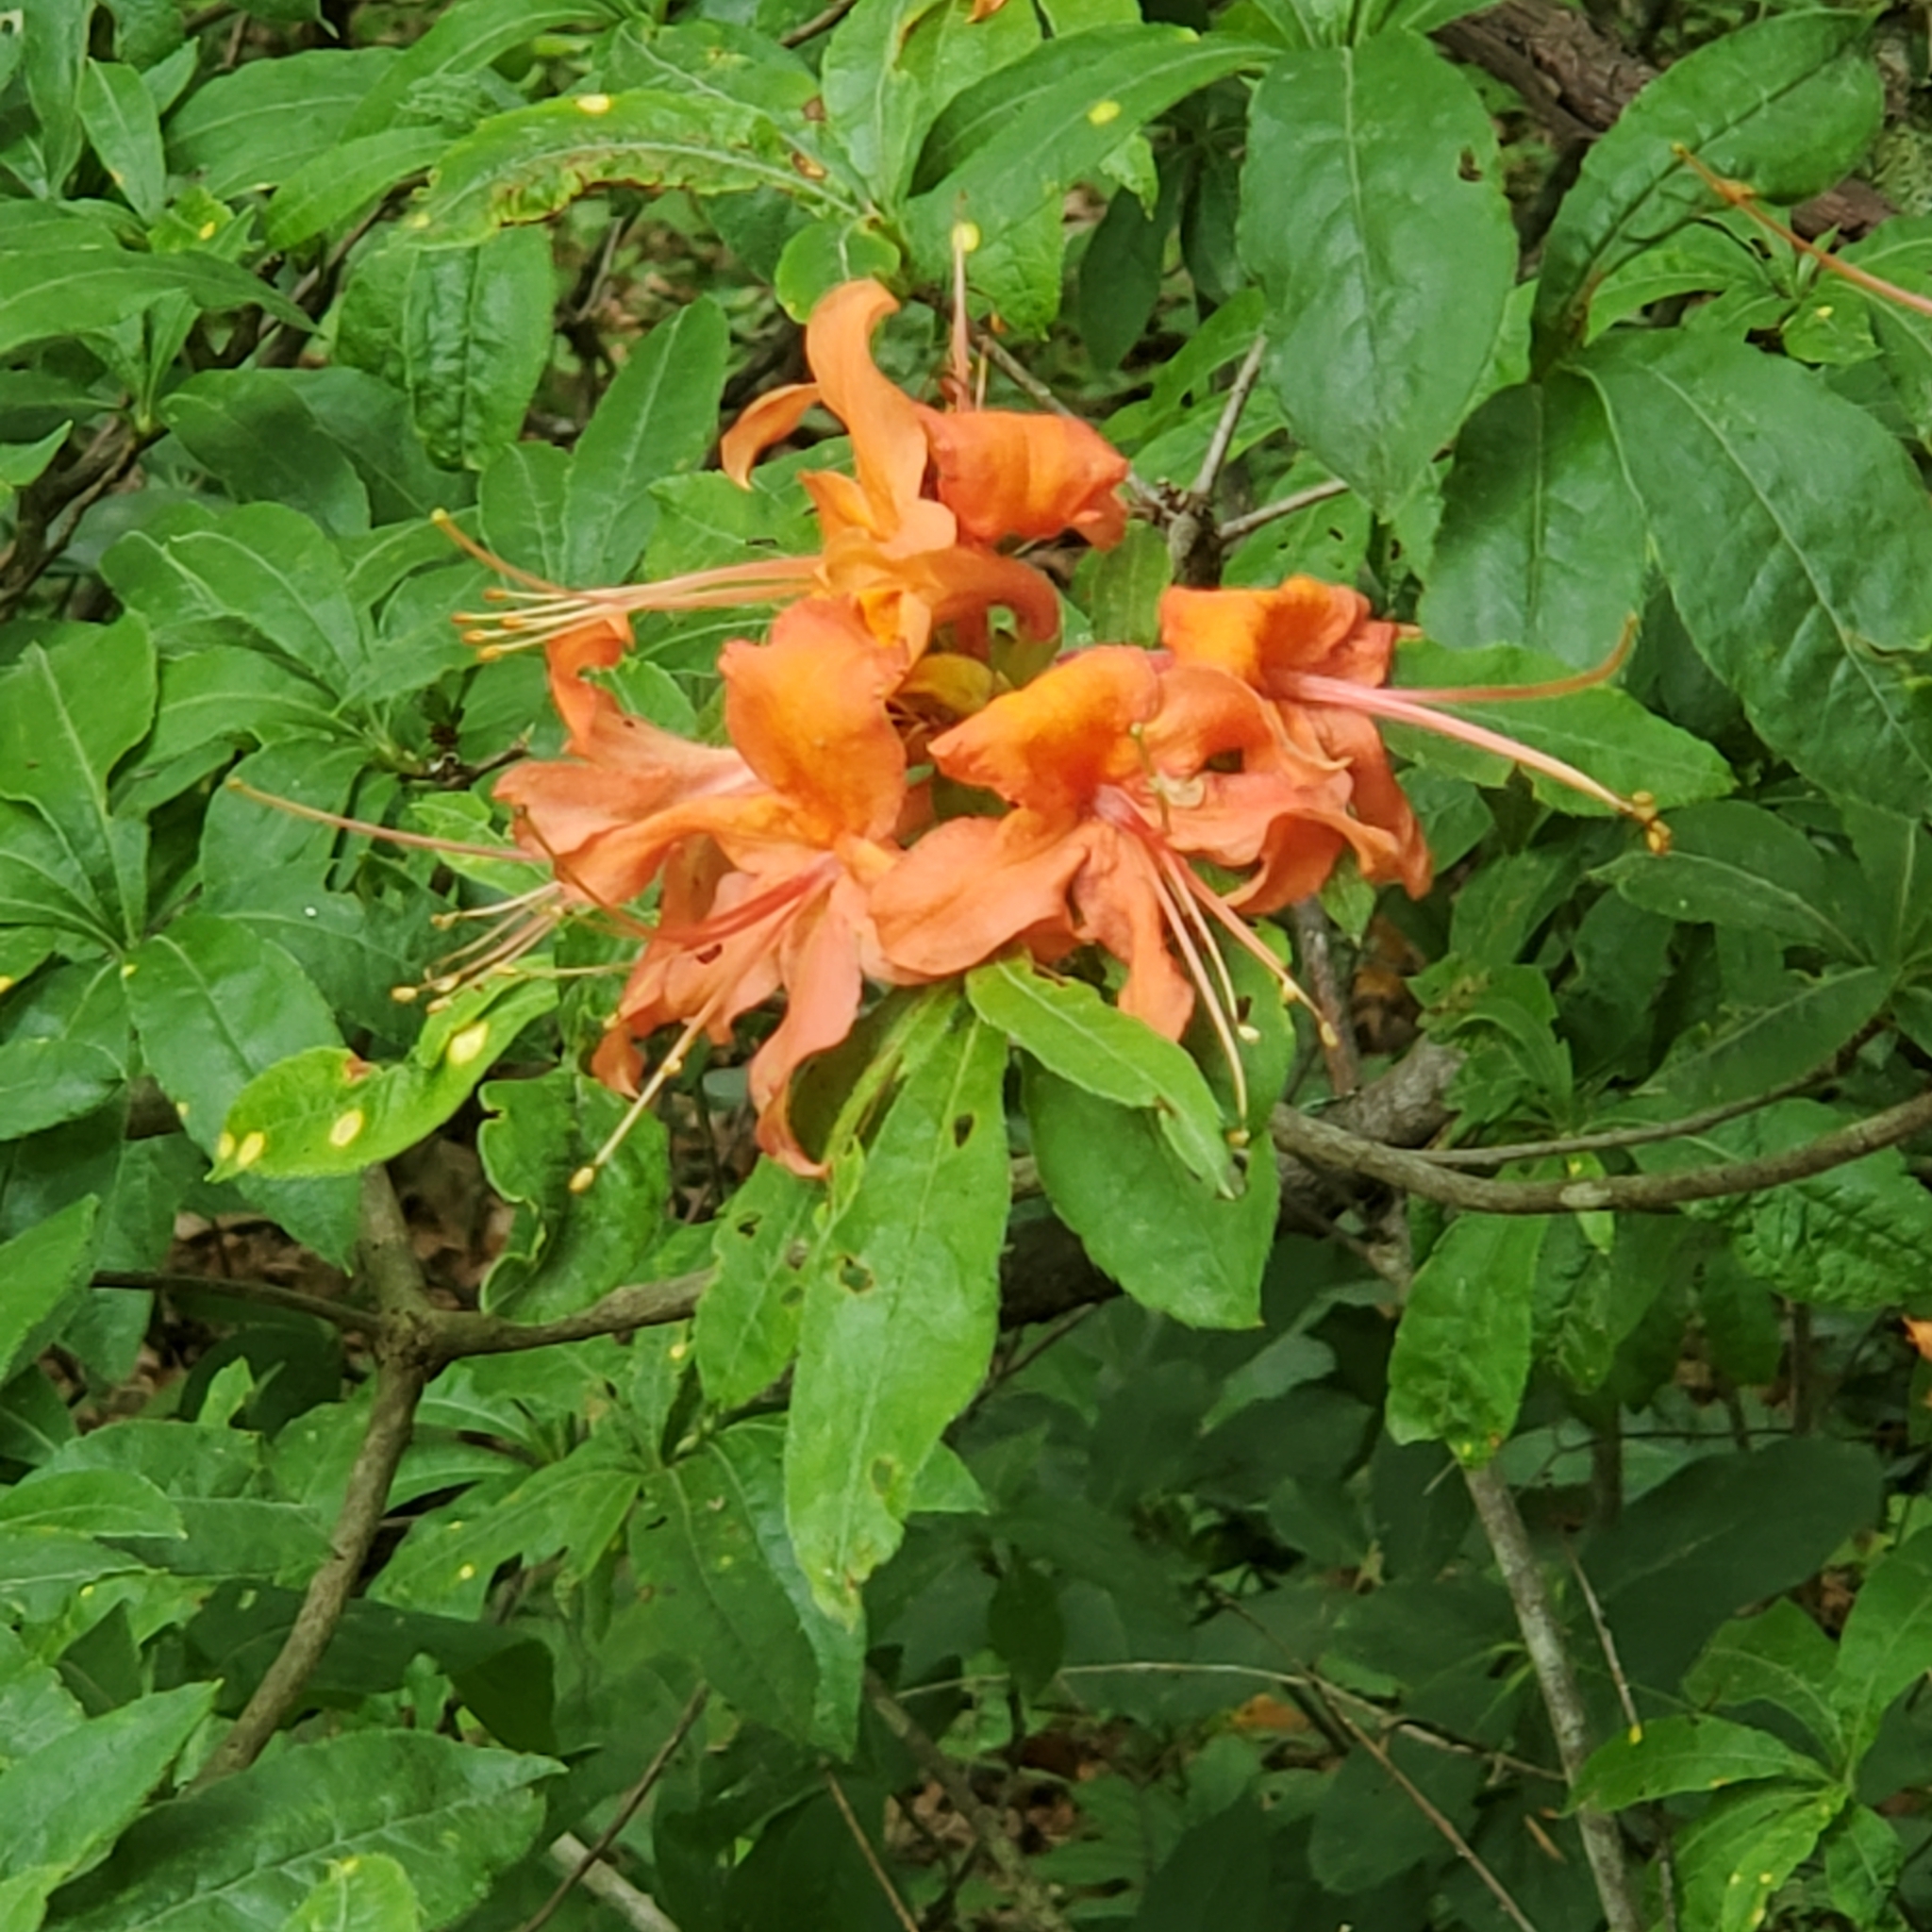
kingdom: Plantae
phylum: Tracheophyta
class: Magnoliopsida
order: Ericales
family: Ericaceae
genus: Rhododendron
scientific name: Rhododendron calendulaceum
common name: Flame azalea
